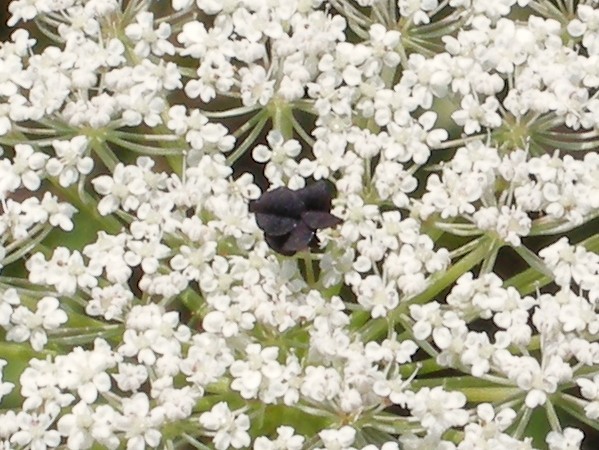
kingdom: Plantae
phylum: Tracheophyta
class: Magnoliopsida
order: Apiales
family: Apiaceae
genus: Daucus
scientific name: Daucus carota
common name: Wild carrot
